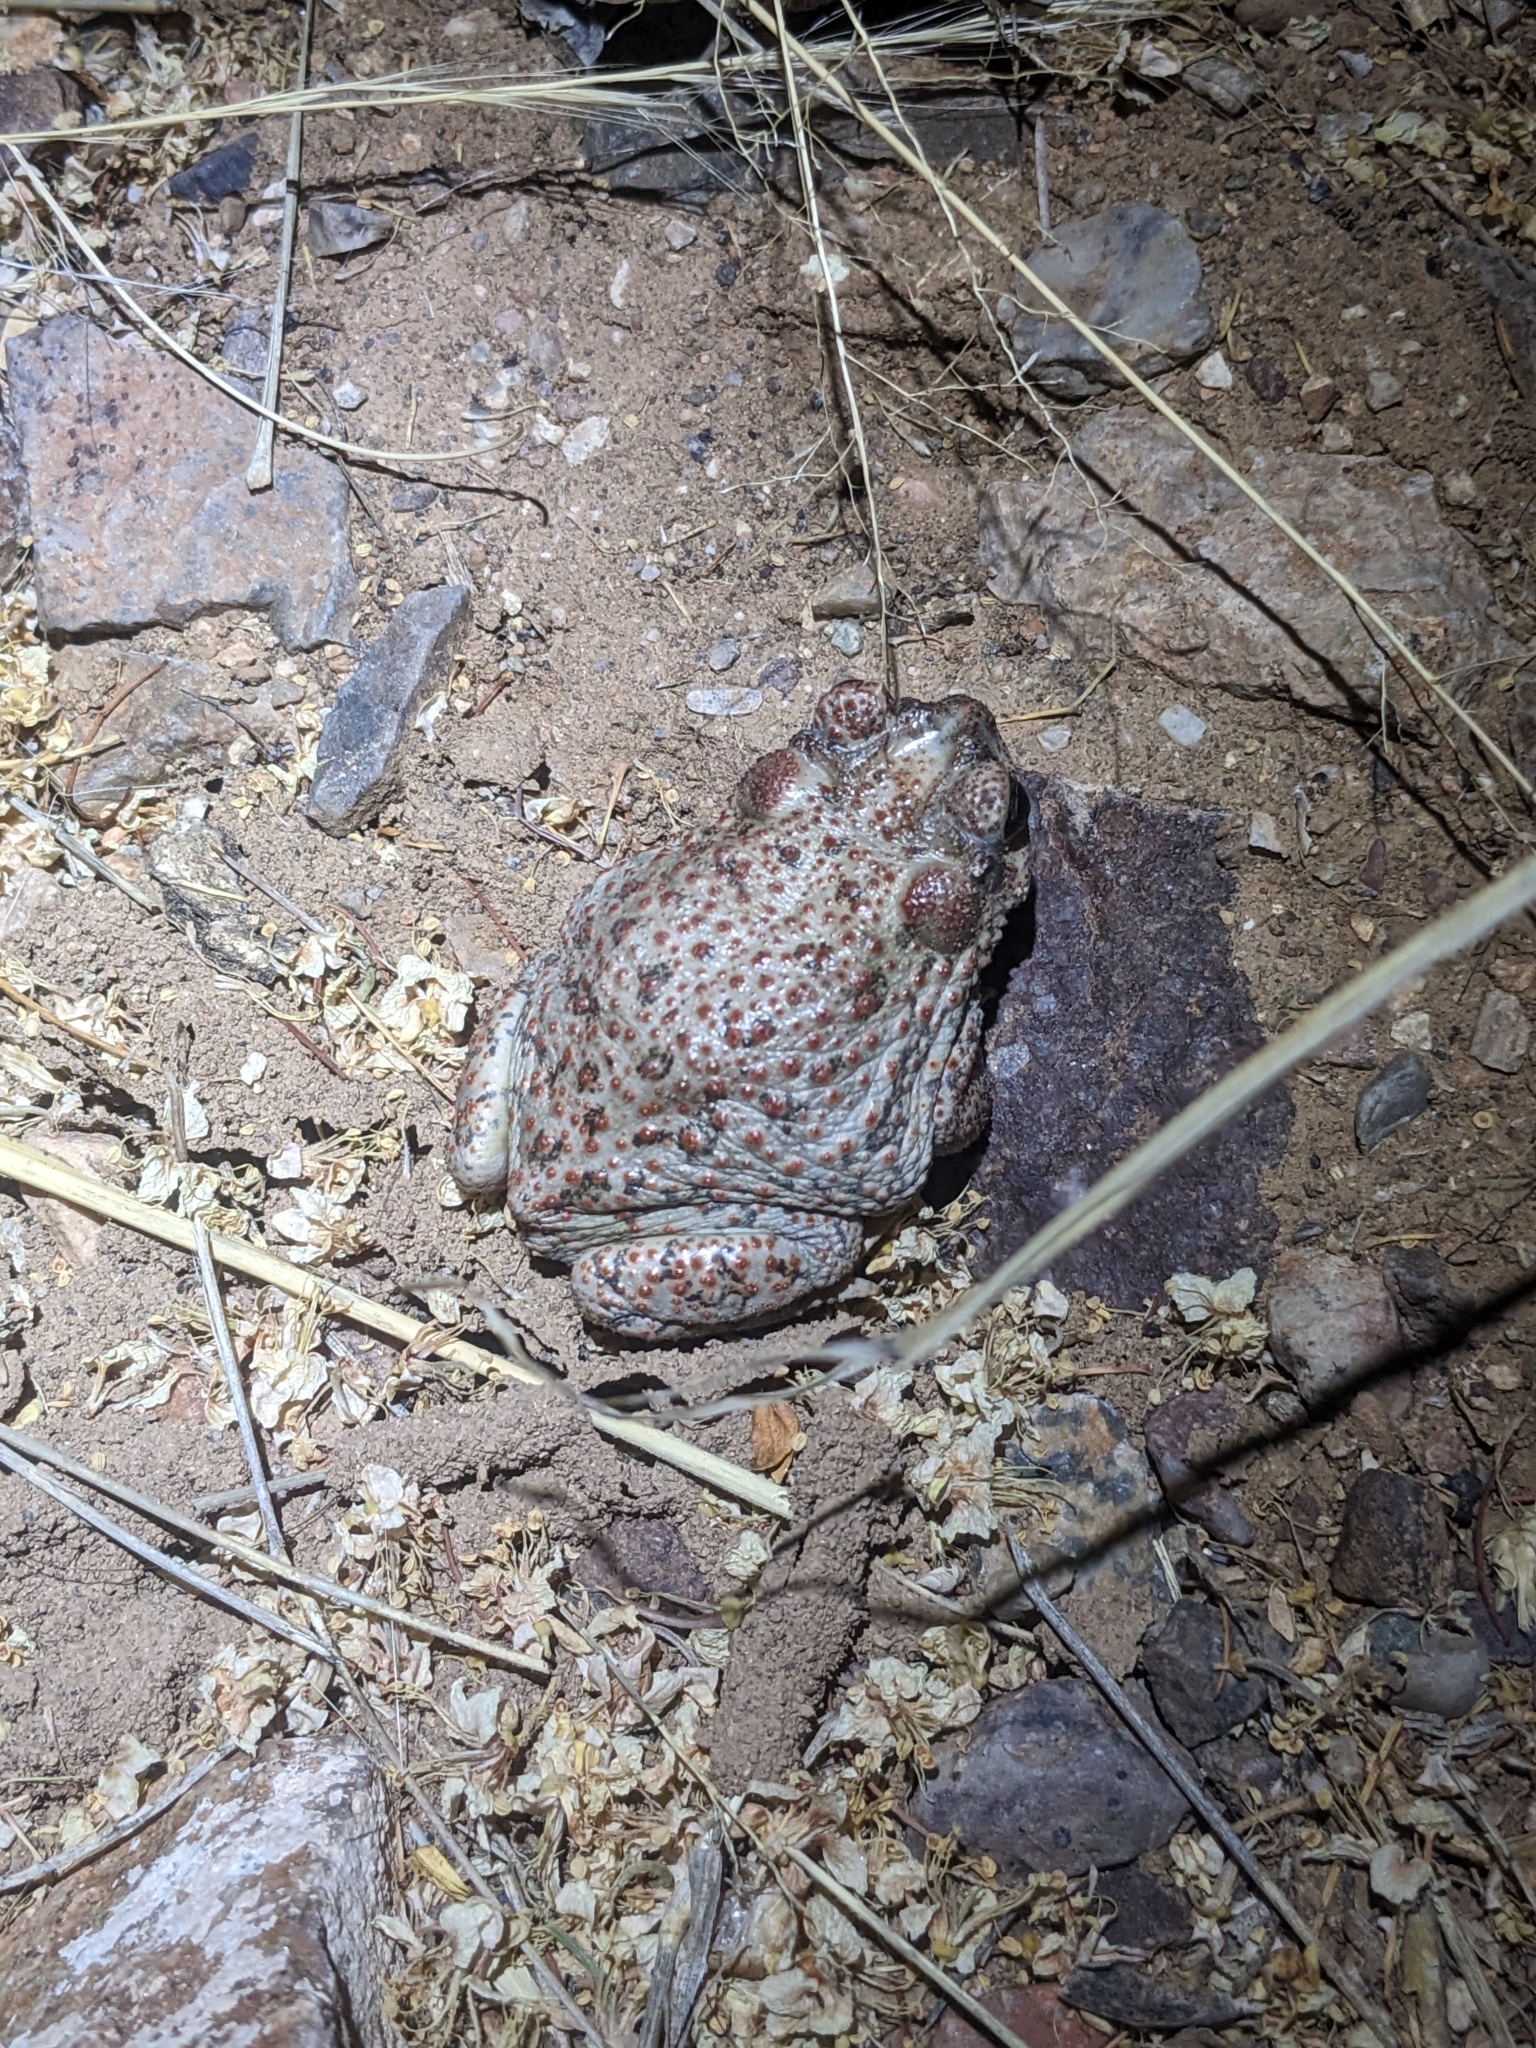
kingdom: Animalia
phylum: Chordata
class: Amphibia
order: Anura
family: Bufonidae
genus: Anaxyrus
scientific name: Anaxyrus punctatus
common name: Red-spotted toad
